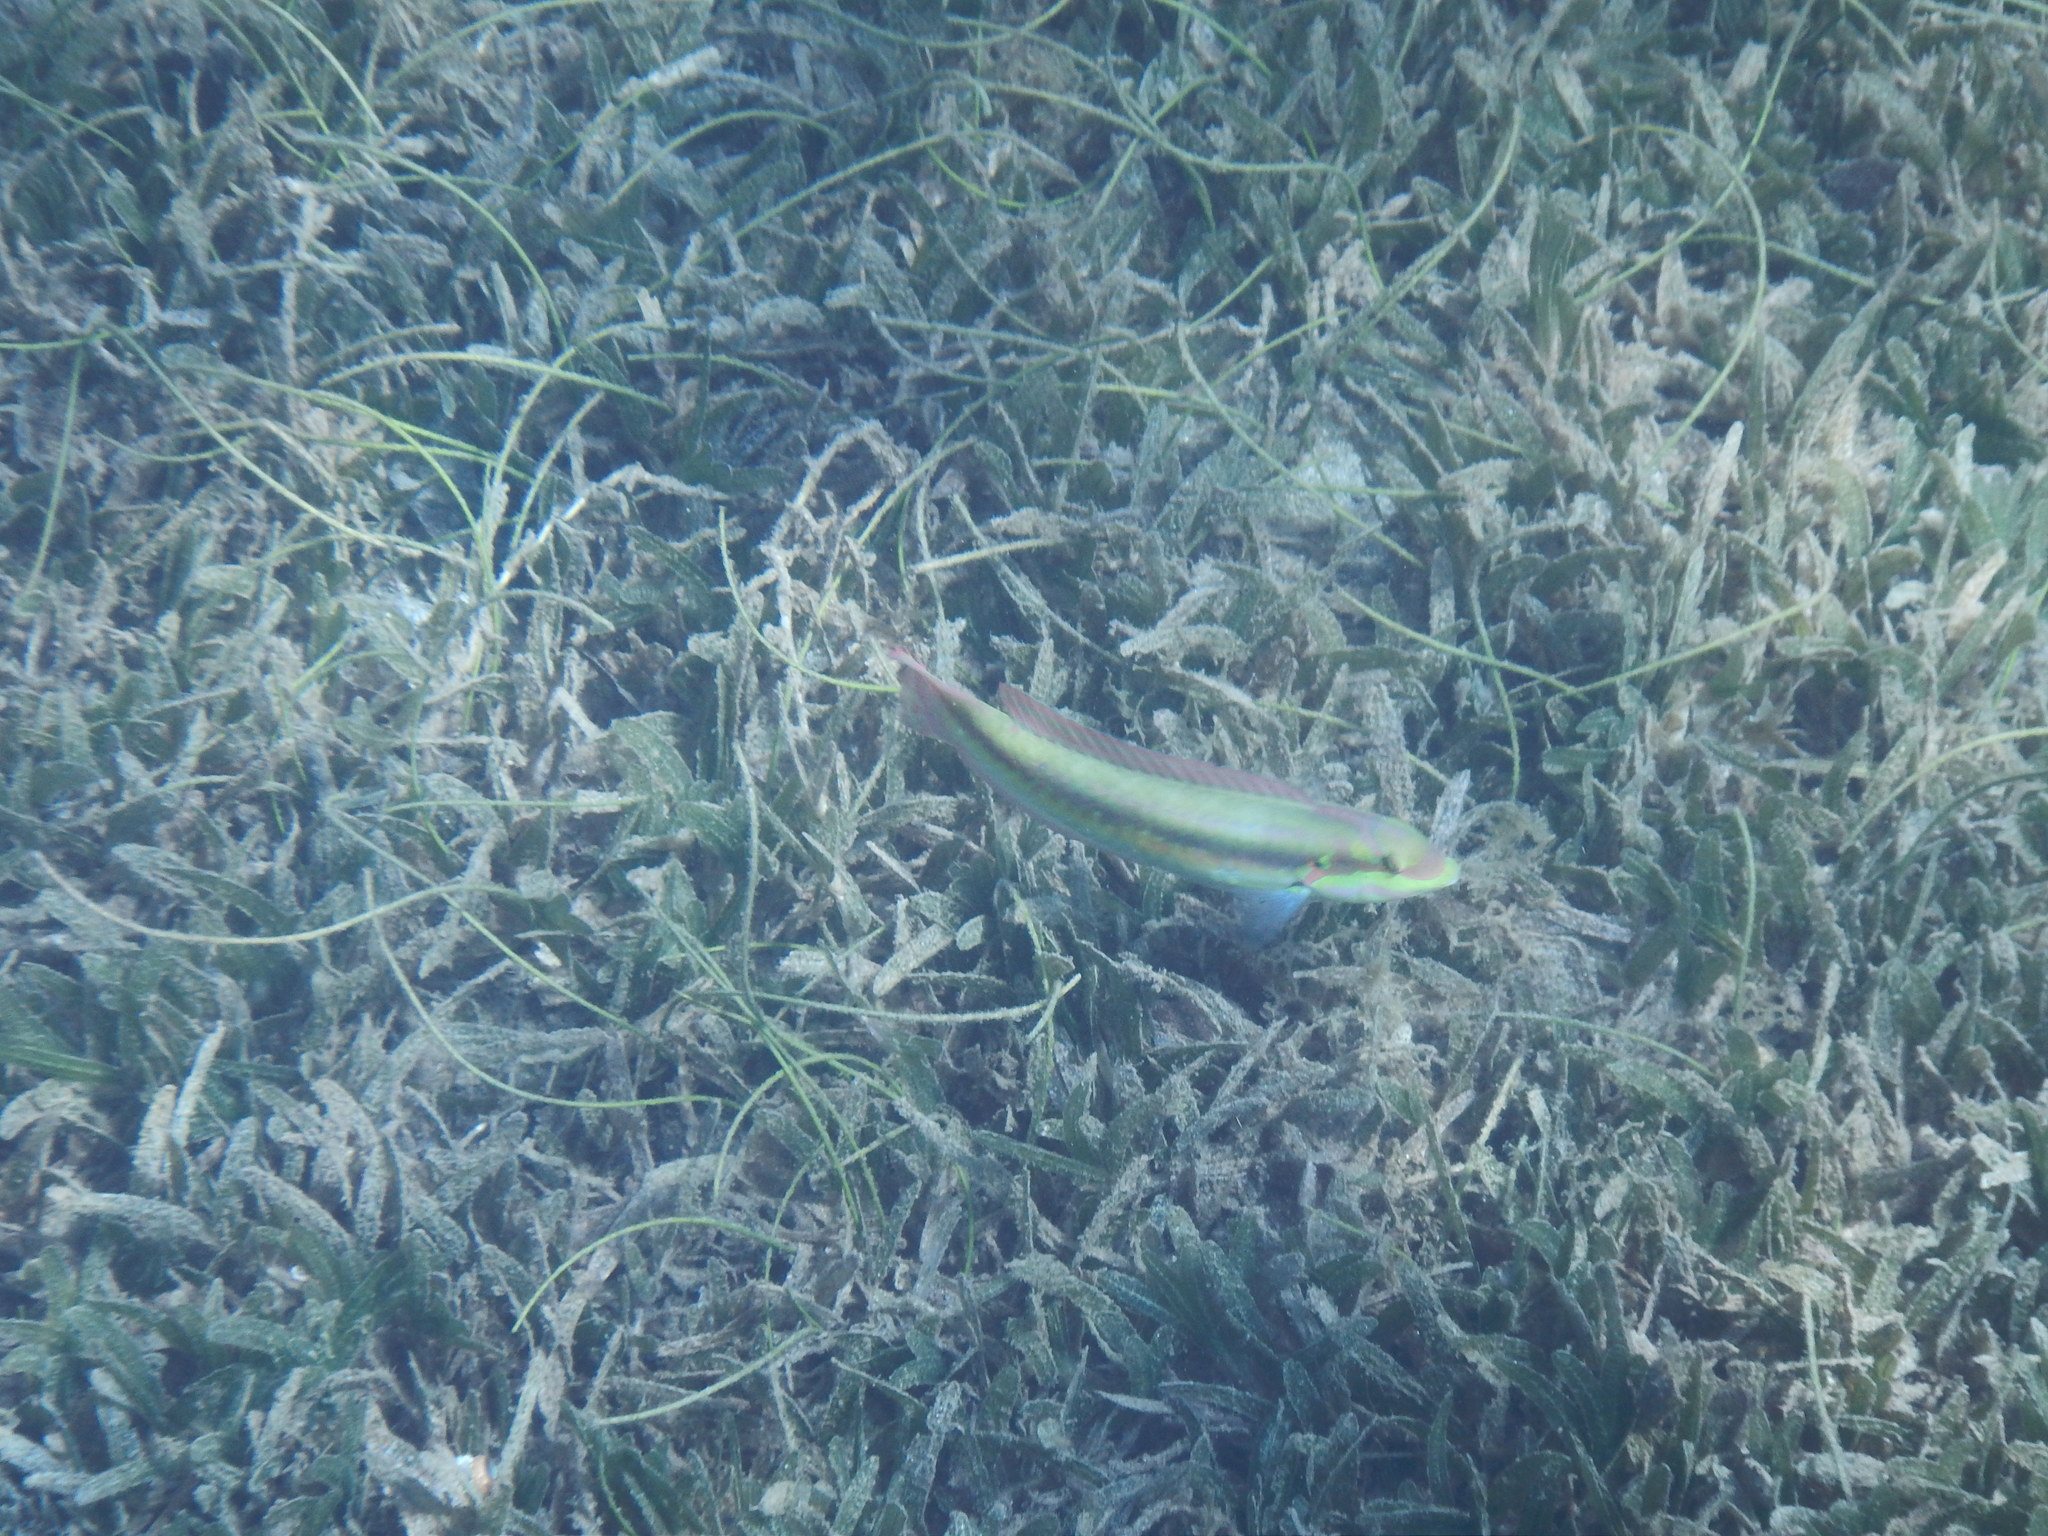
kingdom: Animalia
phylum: Chordata
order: Perciformes
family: Labridae
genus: Halichoeres
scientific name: Halichoeres bivittatus
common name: Slippery dick
